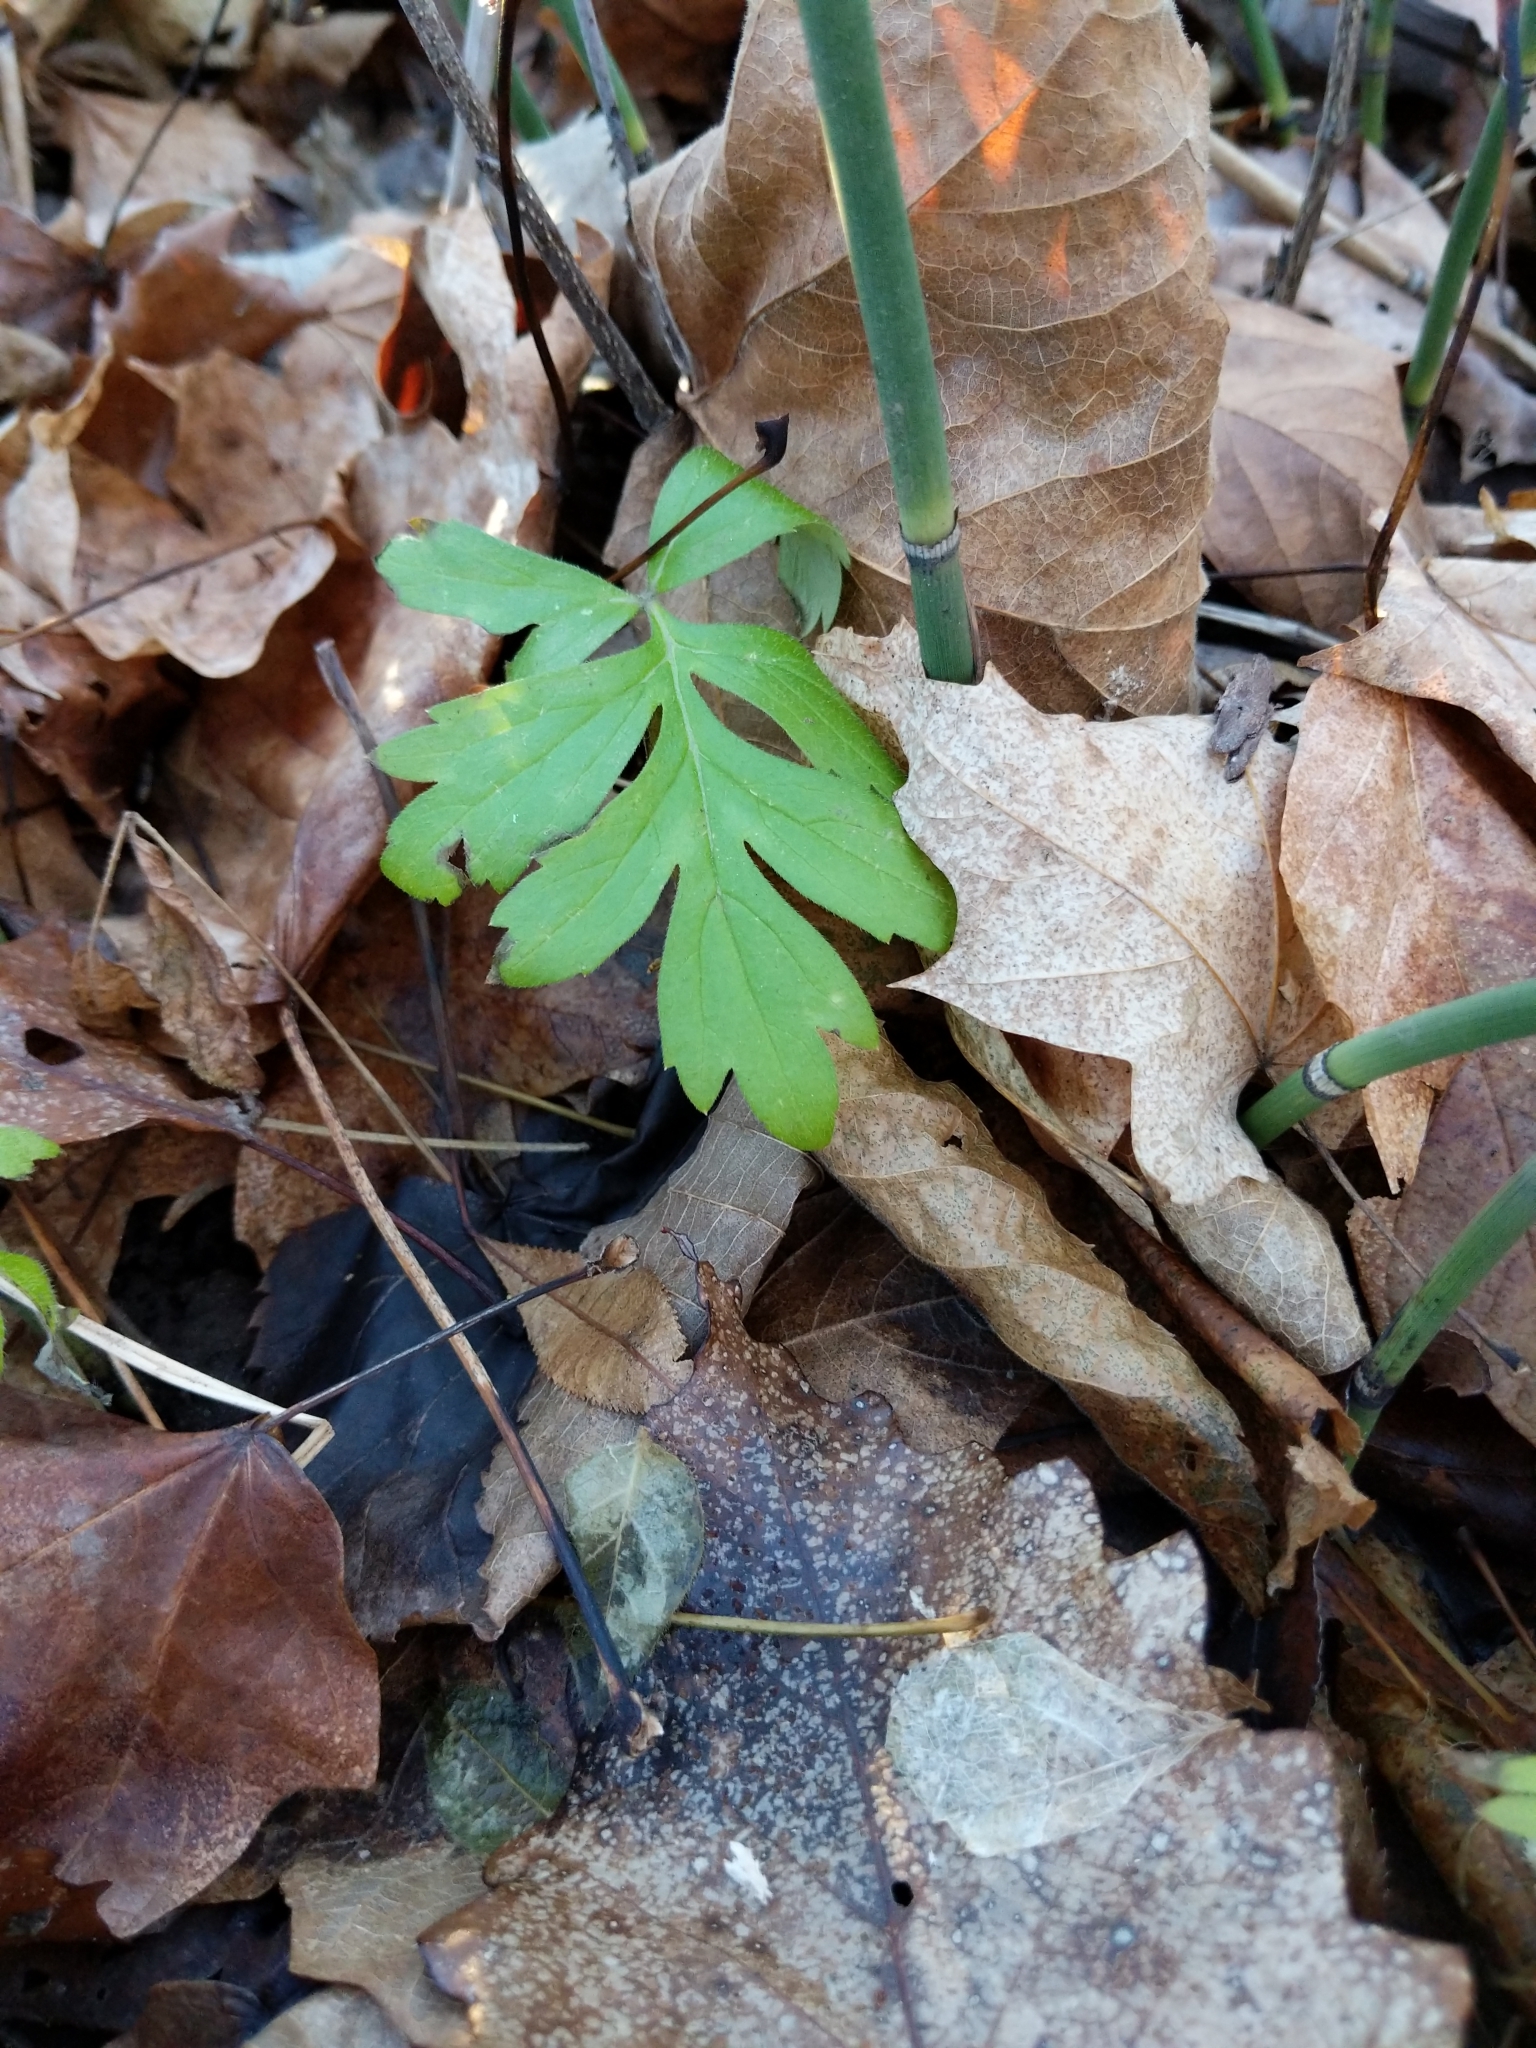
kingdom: Plantae
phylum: Tracheophyta
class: Magnoliopsida
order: Boraginales
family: Hydrophyllaceae
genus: Hydrophyllum
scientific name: Hydrophyllum virginianum
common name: Virginia waterleaf
